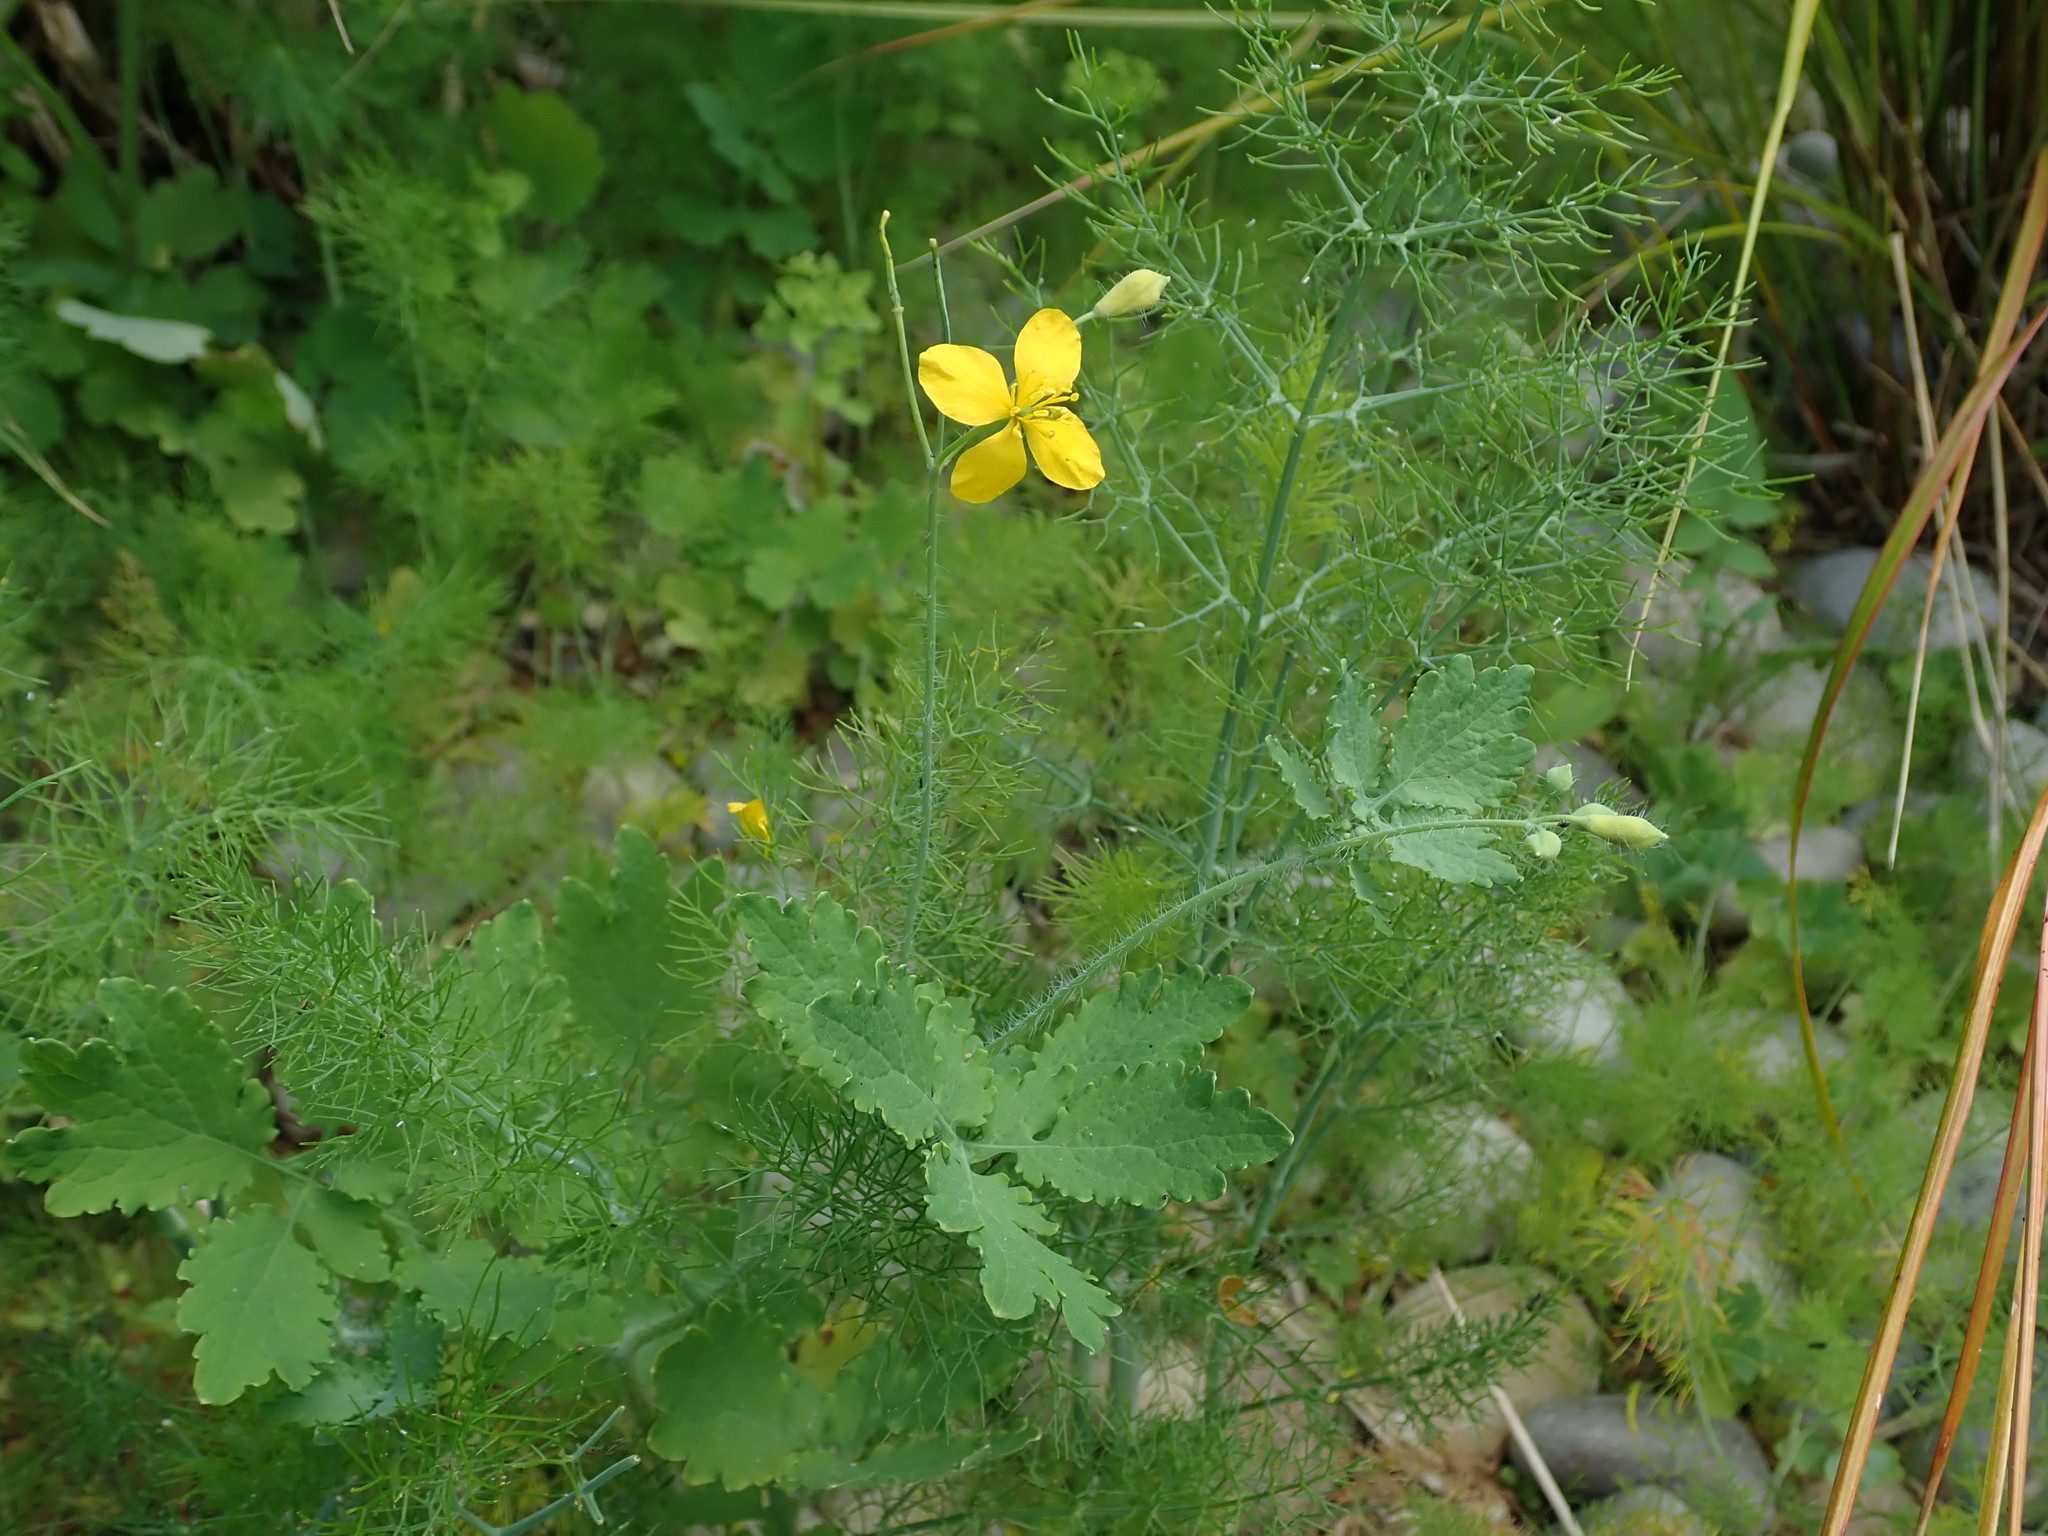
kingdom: Plantae
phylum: Tracheophyta
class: Magnoliopsida
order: Ranunculales
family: Papaveraceae
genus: Chelidonium
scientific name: Chelidonium majus
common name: Greater celandine
